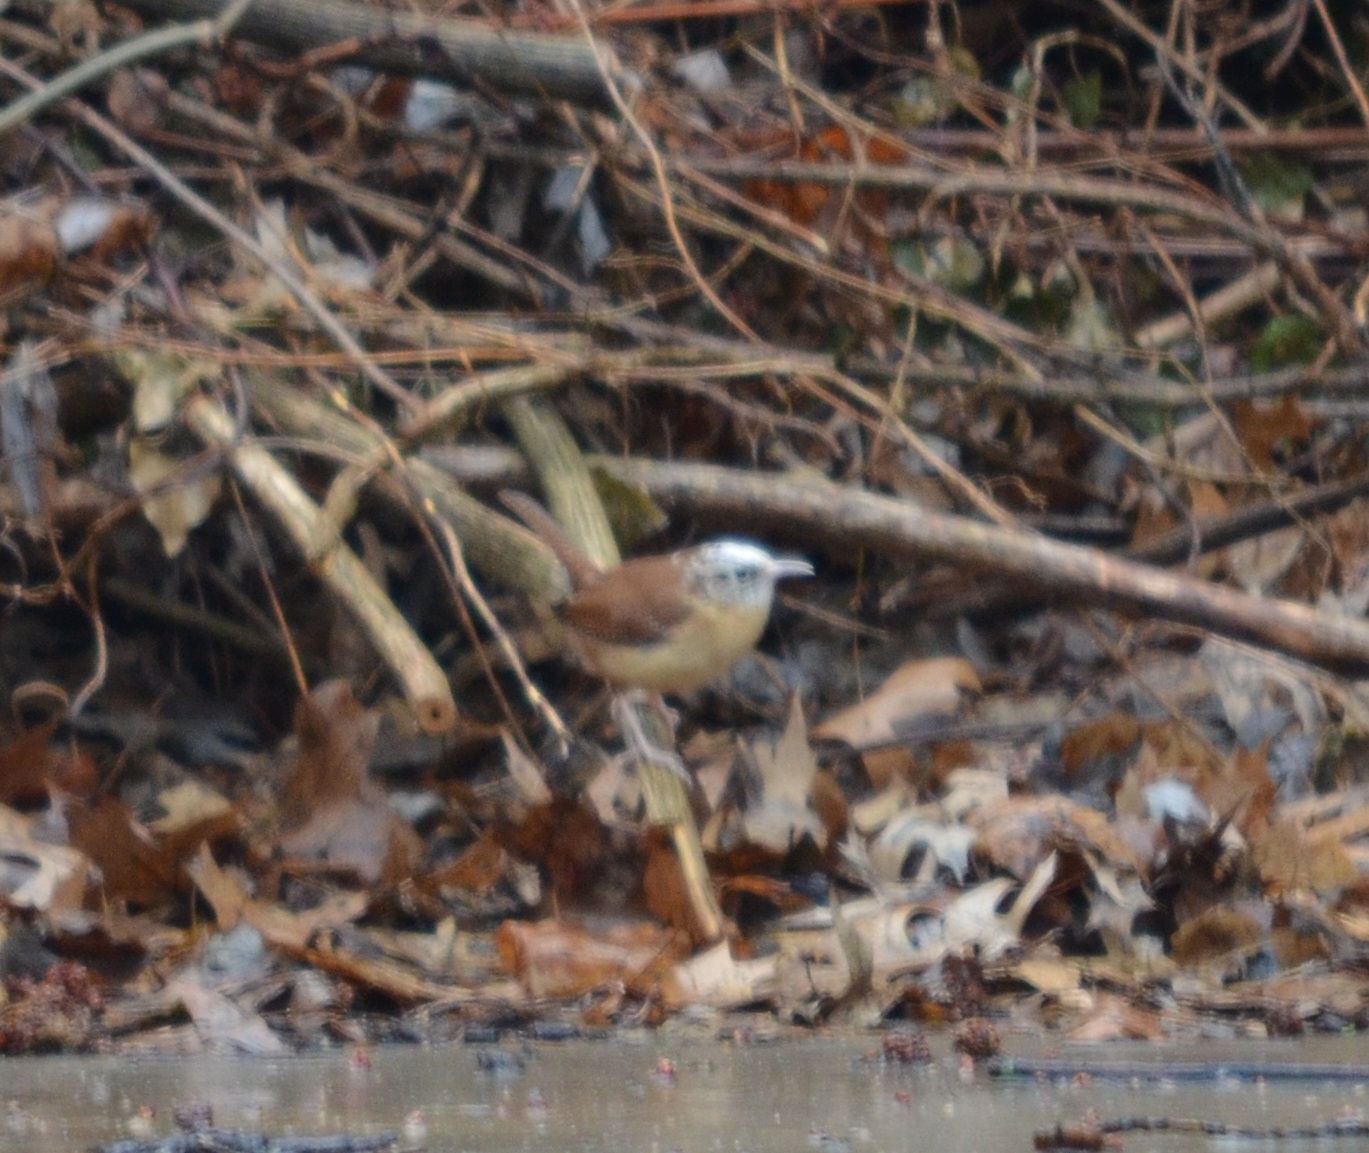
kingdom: Animalia
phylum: Chordata
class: Aves
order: Passeriformes
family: Troglodytidae
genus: Thryothorus
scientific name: Thryothorus ludovicianus
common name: Carolina wren
